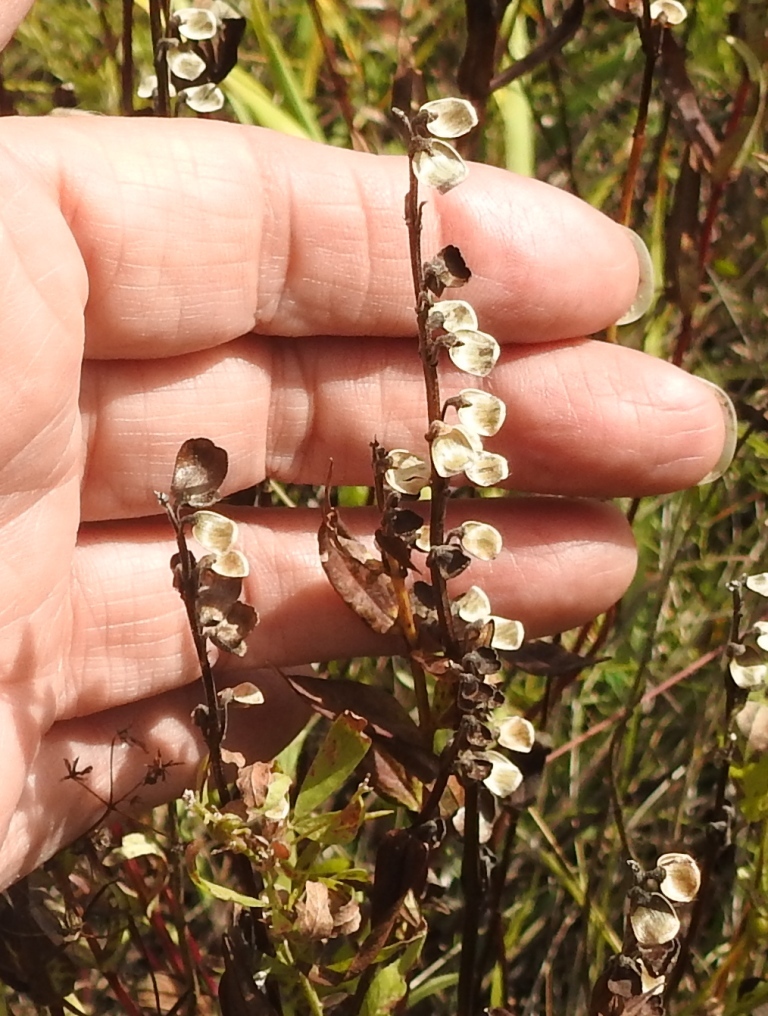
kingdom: Plantae
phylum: Tracheophyta
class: Magnoliopsida
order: Lamiales
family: Lamiaceae
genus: Scutellaria
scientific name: Scutellaria baicalensis
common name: Baikal skullcap
